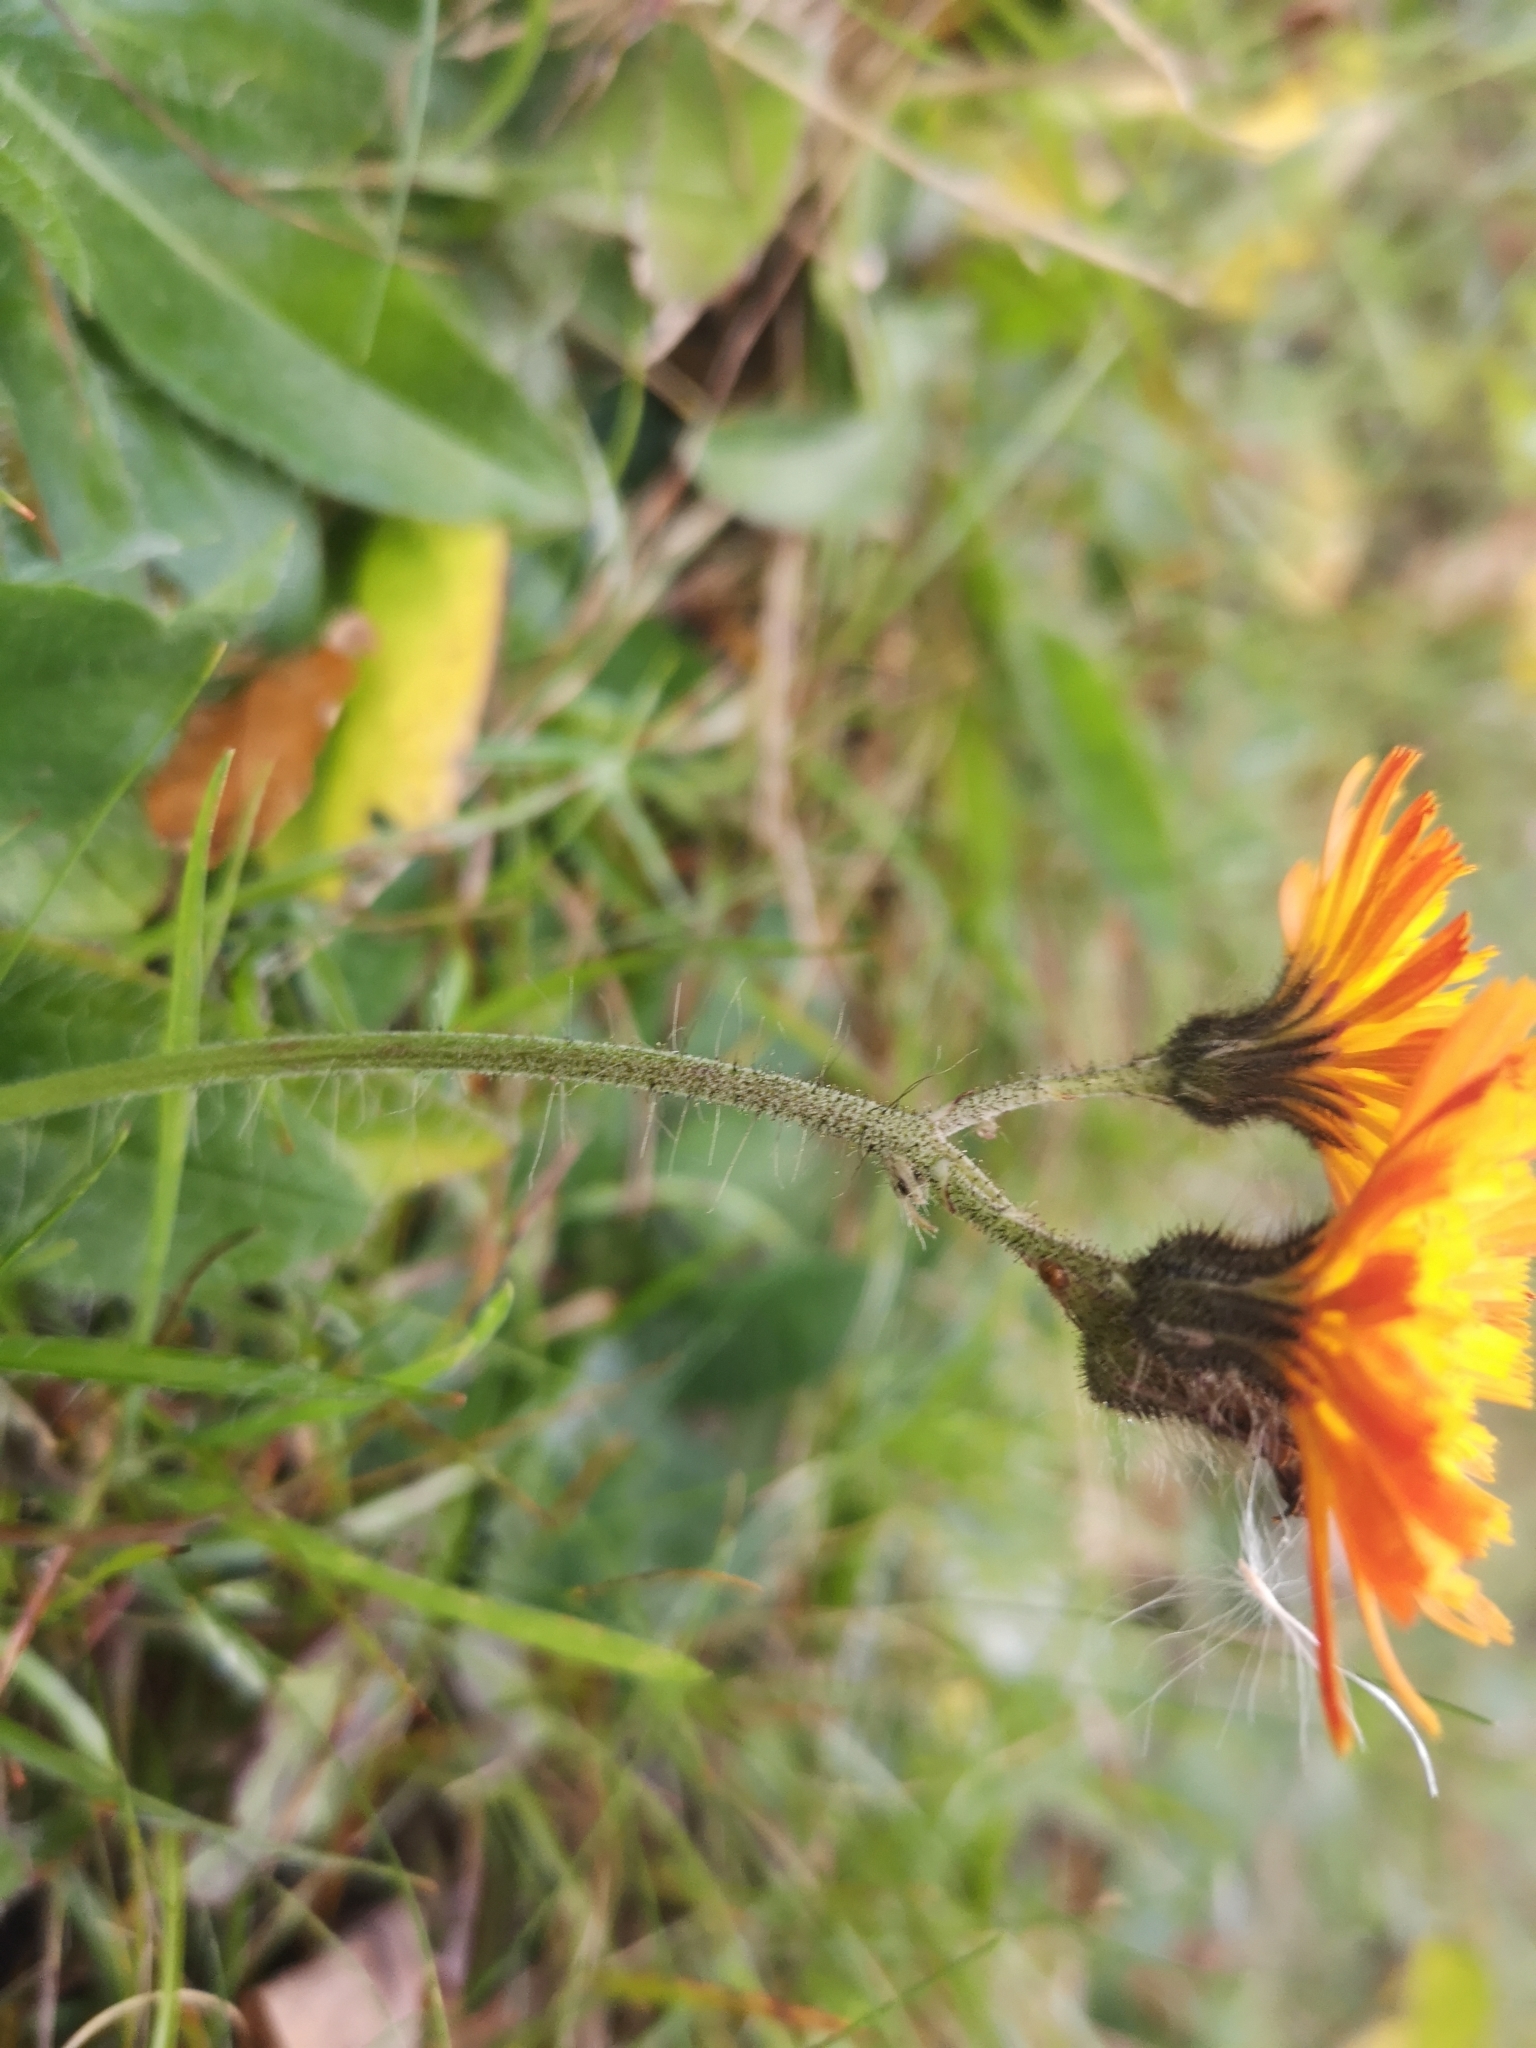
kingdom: Plantae
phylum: Tracheophyta
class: Magnoliopsida
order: Asterales
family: Asteraceae
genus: Pilosella
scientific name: Pilosella aurantiaca
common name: Fox-and-cubs
